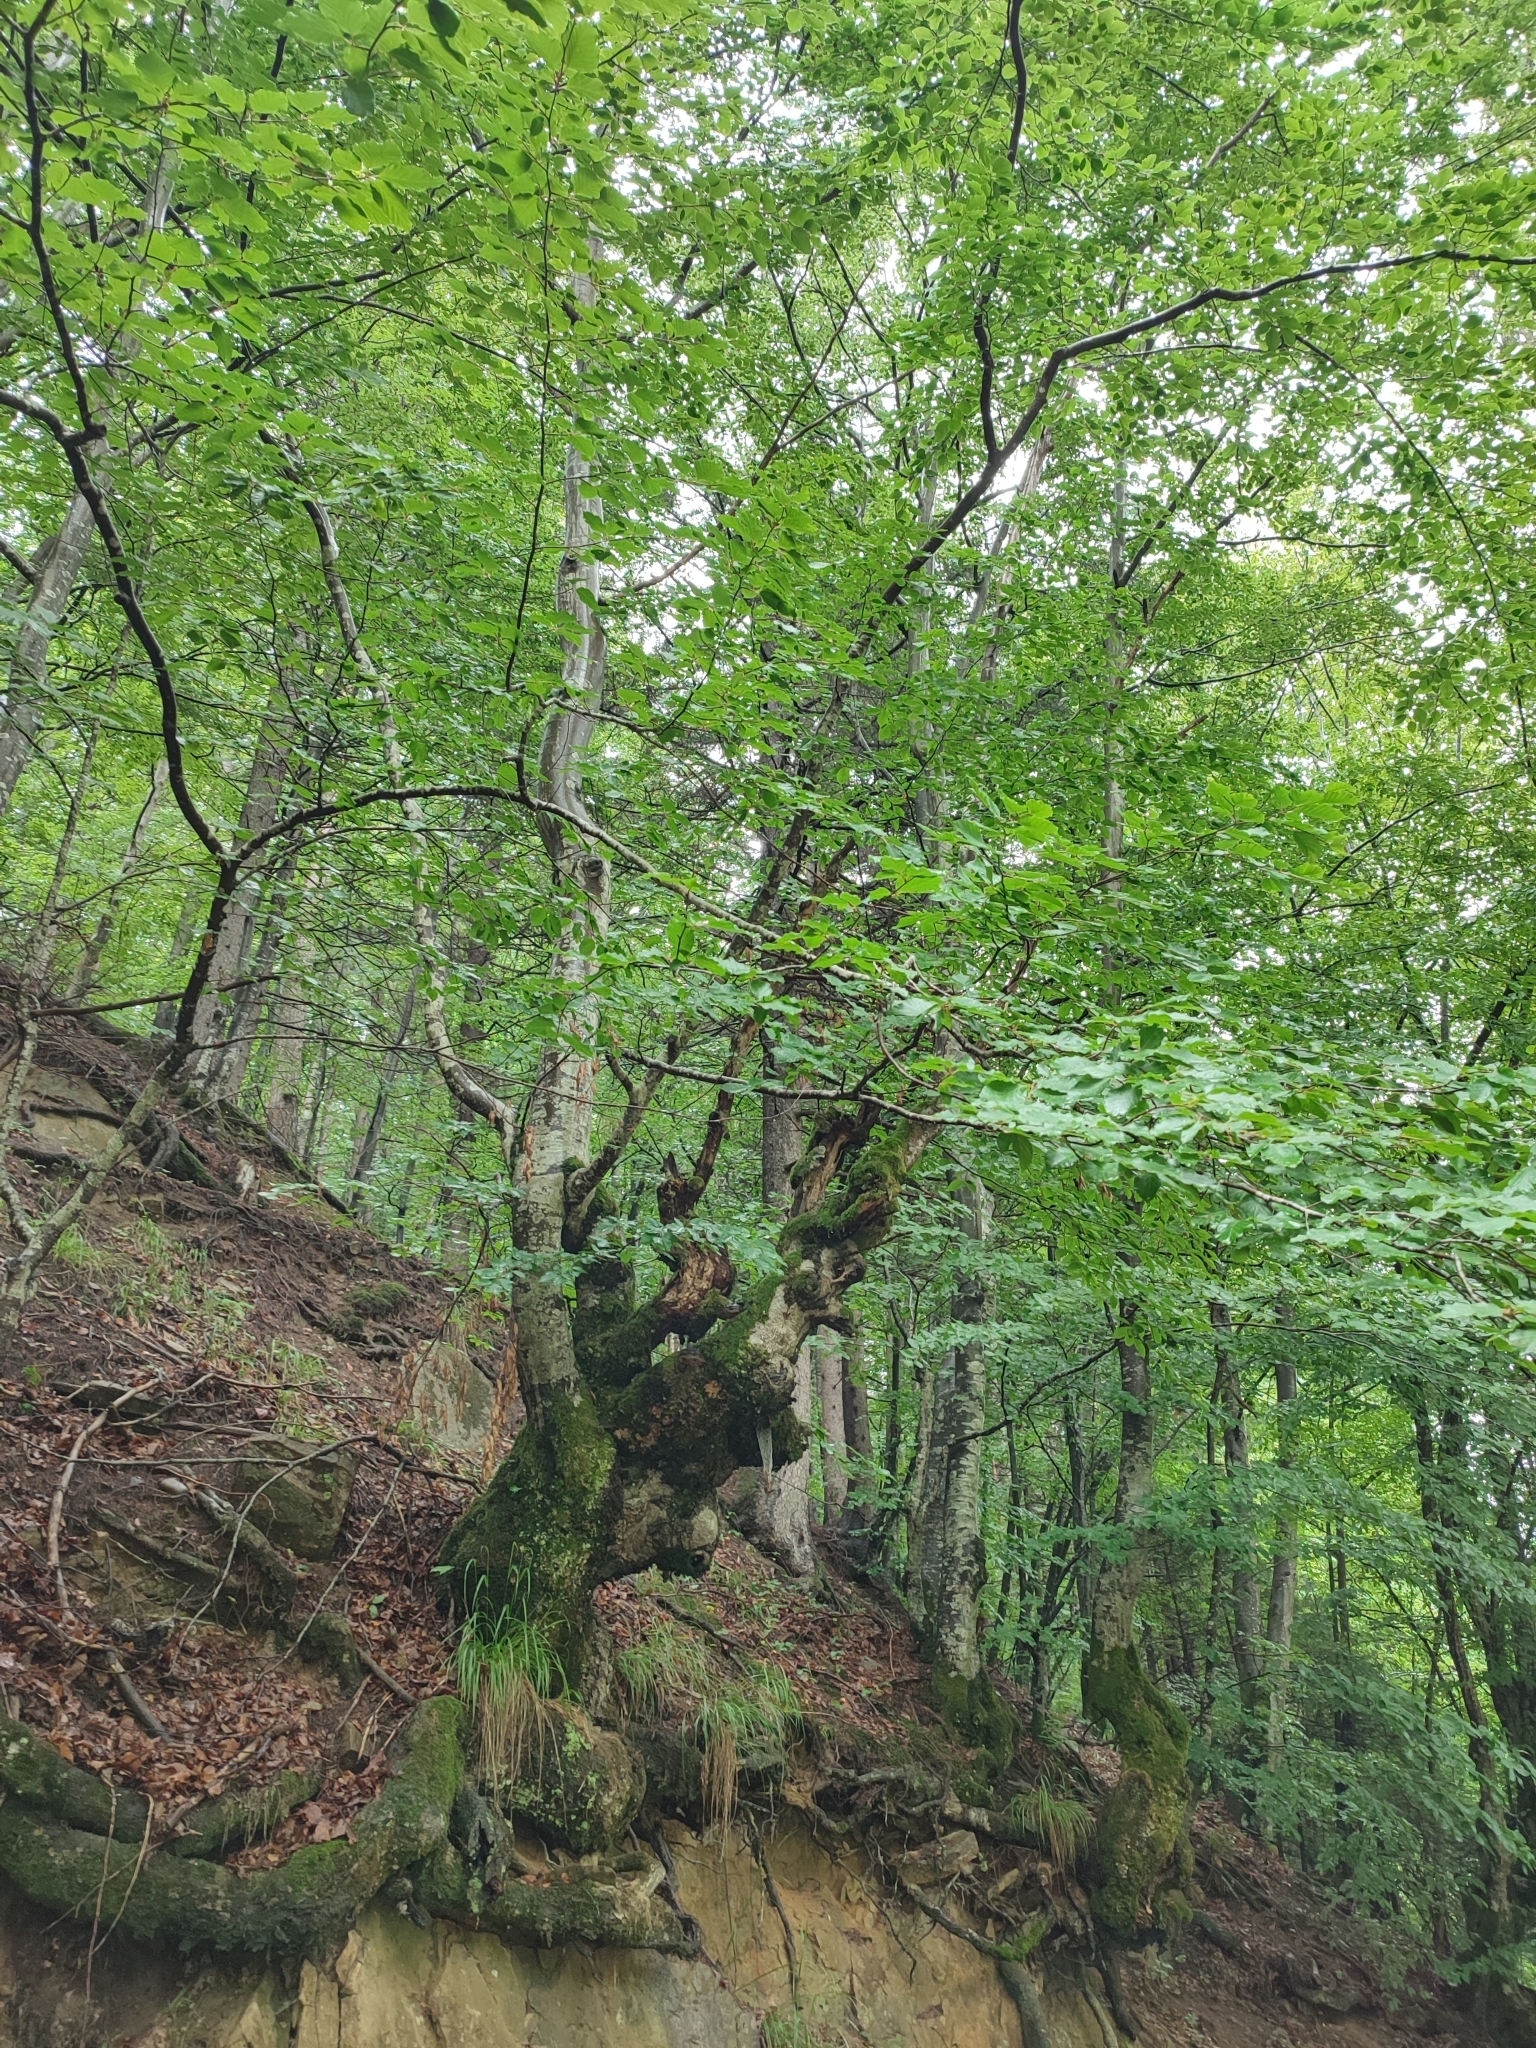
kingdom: Plantae
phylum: Tracheophyta
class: Magnoliopsida
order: Fagales
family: Fagaceae
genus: Fagus
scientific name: Fagus sylvatica
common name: Beech
